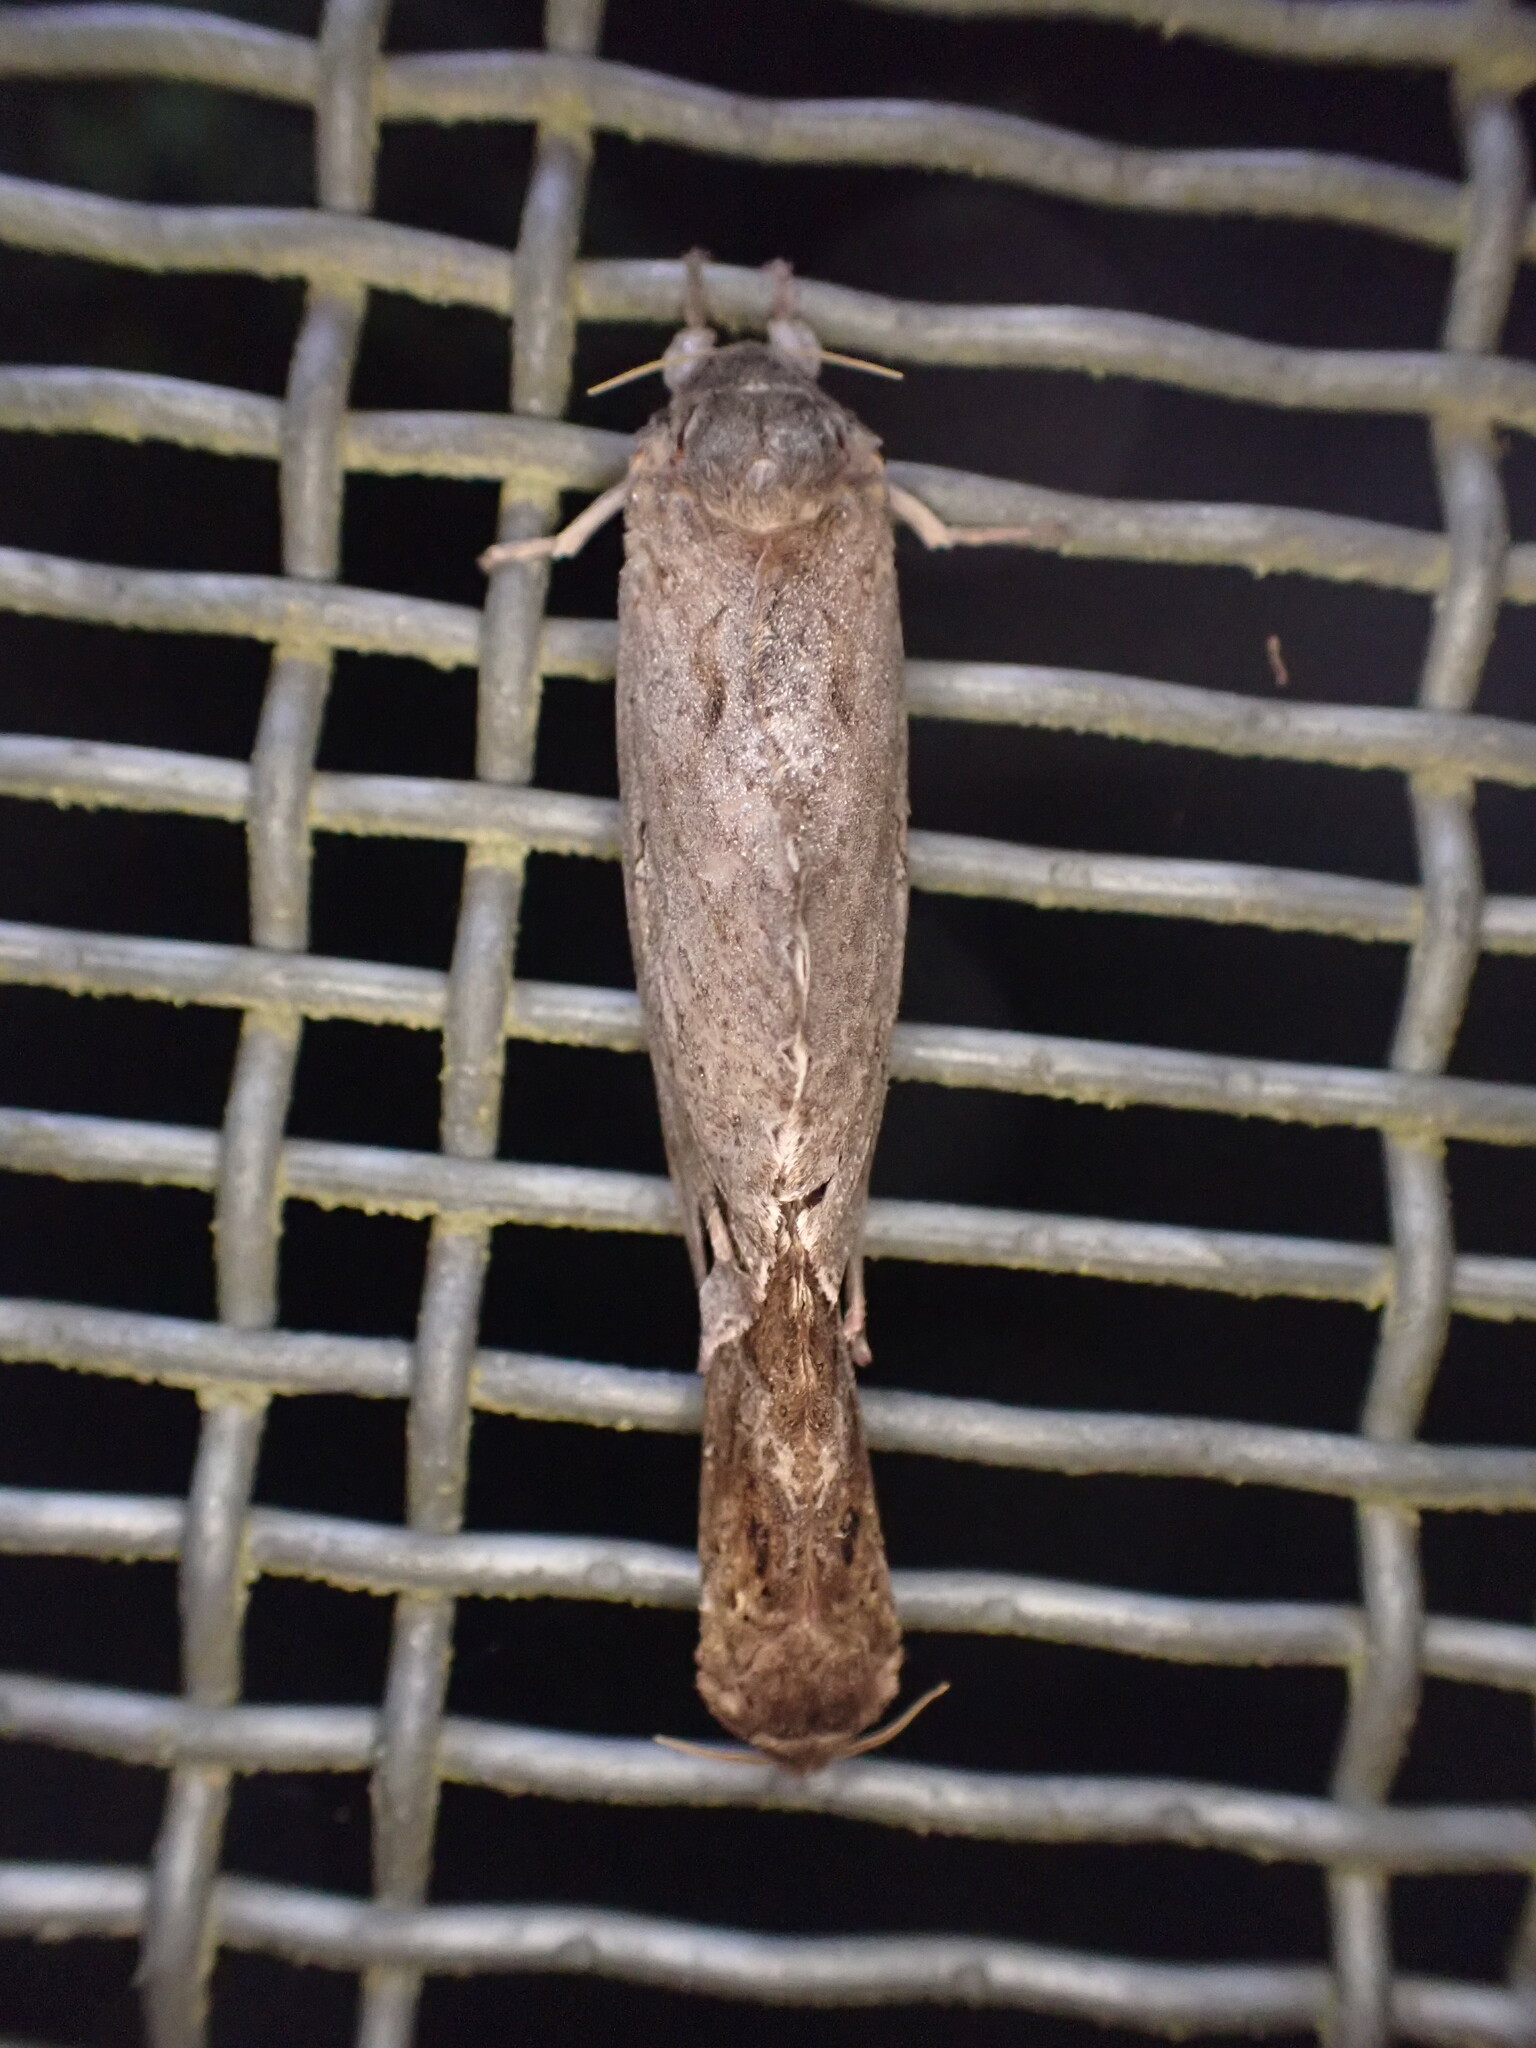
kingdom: Animalia
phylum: Arthropoda
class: Insecta
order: Lepidoptera
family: Hepialidae
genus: Dumbletonius
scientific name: Dumbletonius unimaculata
